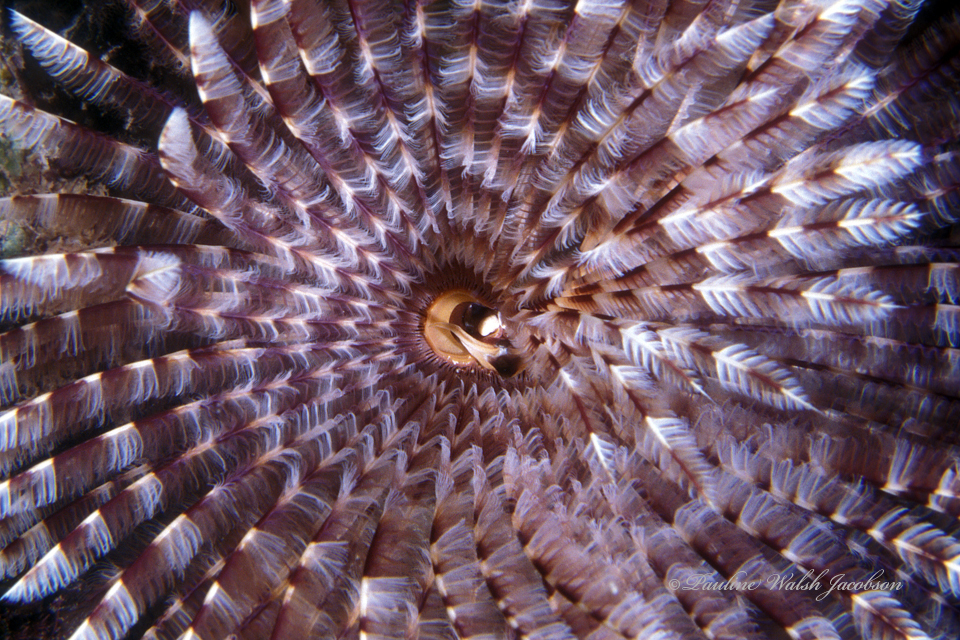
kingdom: Animalia
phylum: Annelida
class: Polychaeta
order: Sabellida
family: Sabellidae
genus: Sabellastarte
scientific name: Sabellastarte magnifica
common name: Giant feather-duster worm
